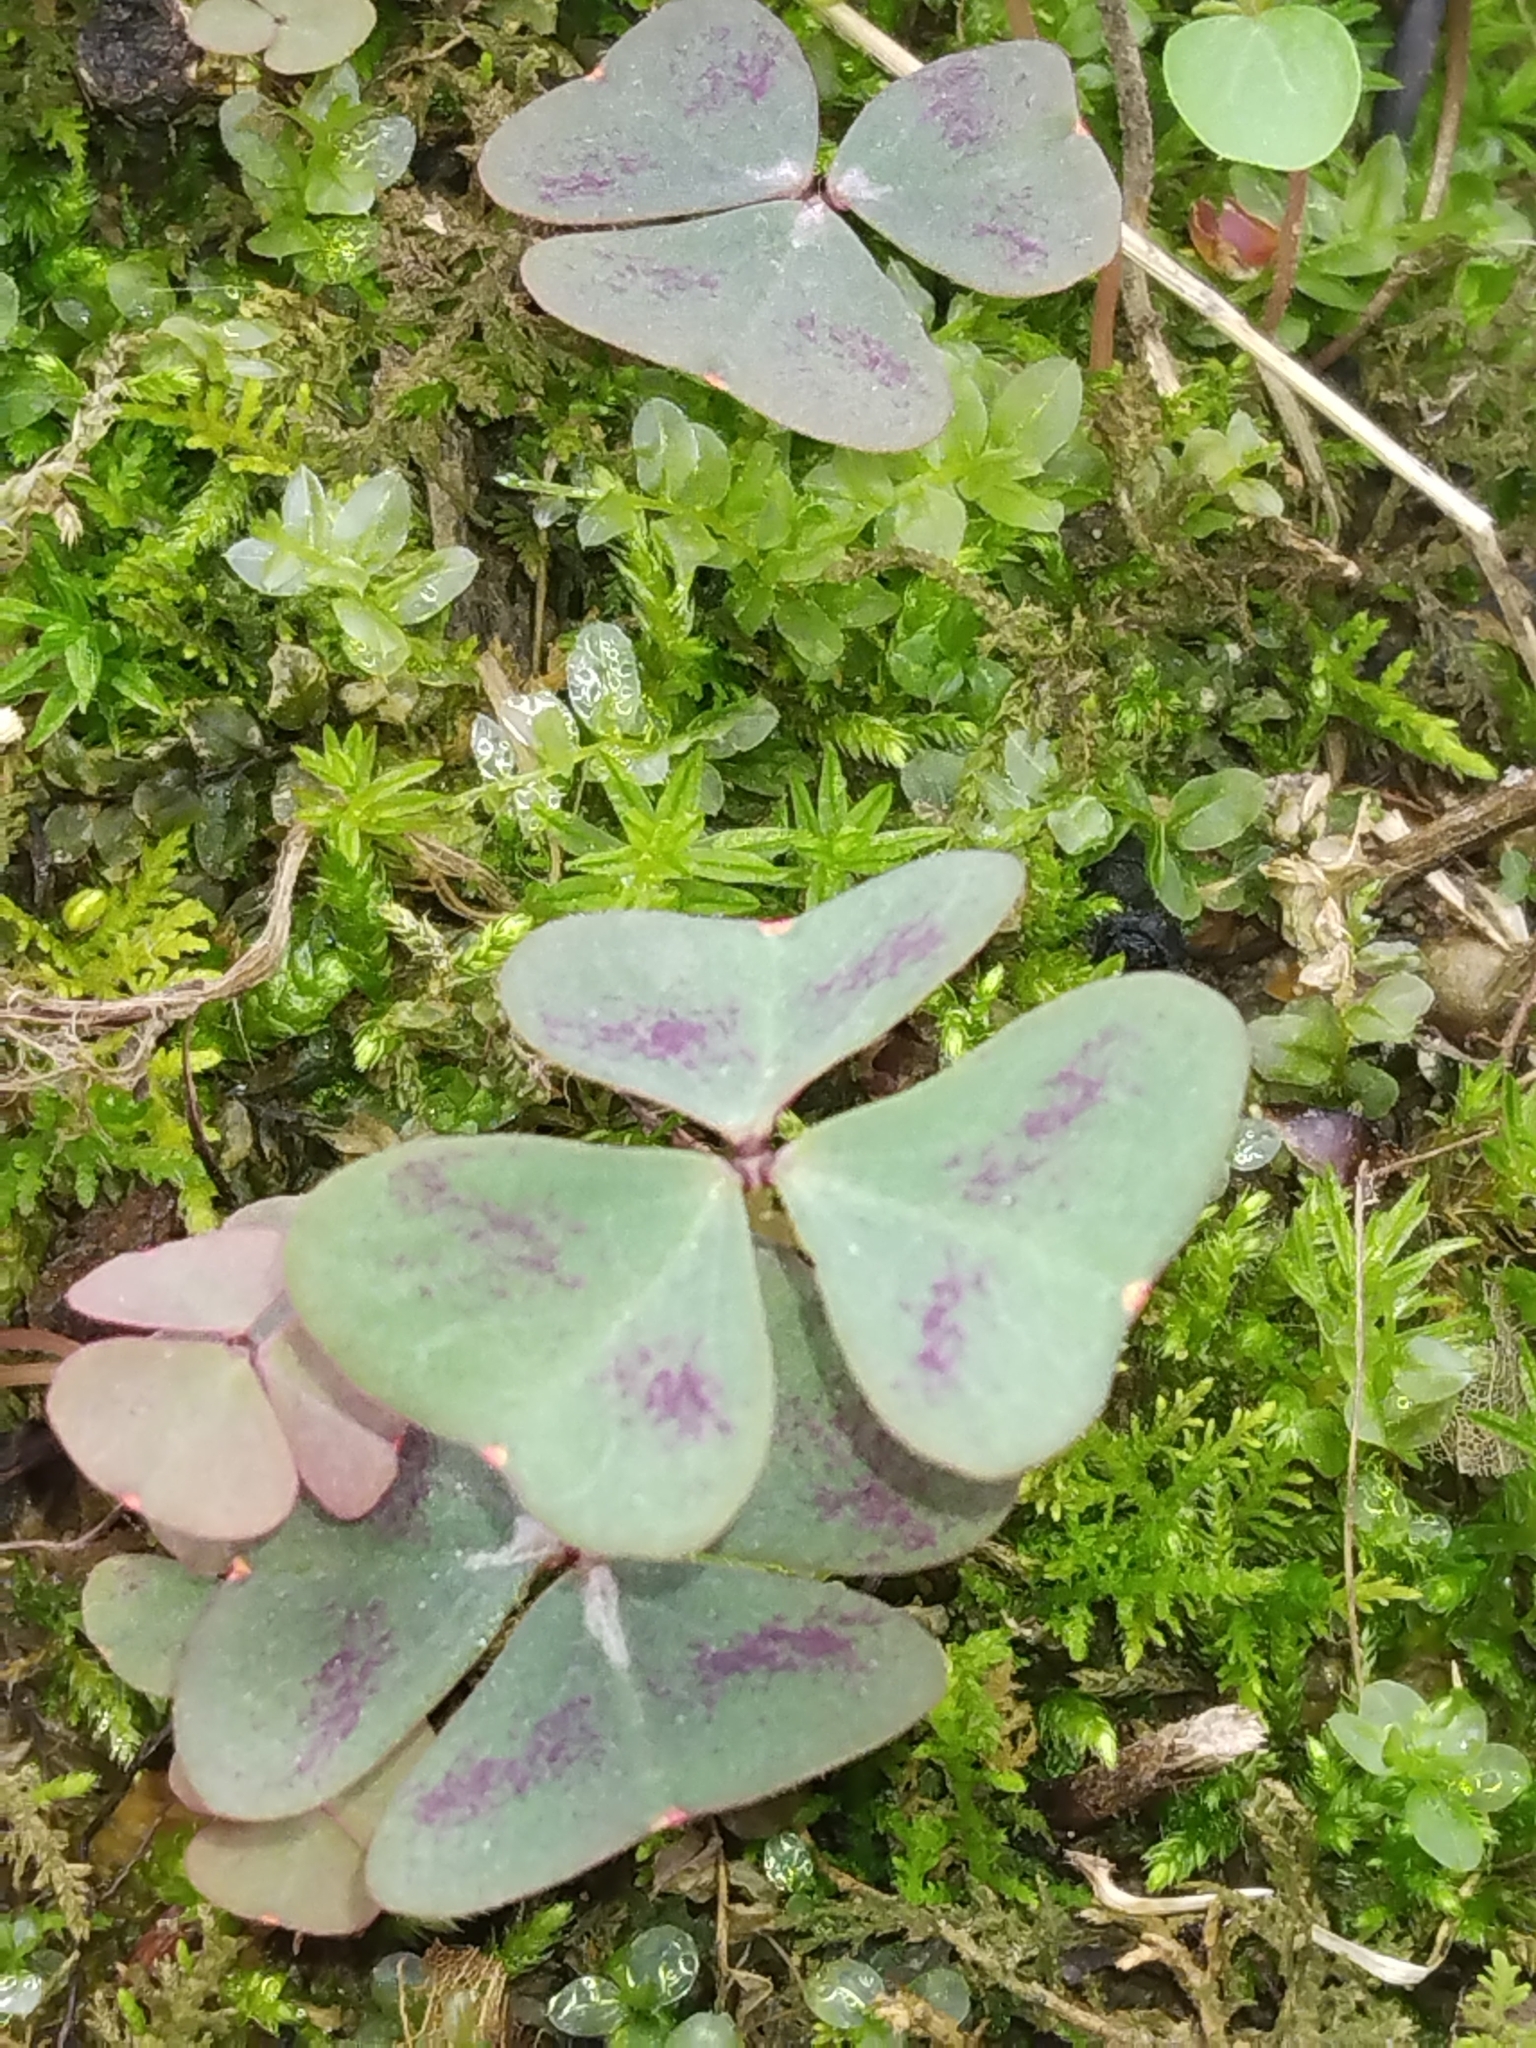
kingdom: Plantae
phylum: Tracheophyta
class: Magnoliopsida
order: Oxalidales
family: Oxalidaceae
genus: Oxalis
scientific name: Oxalis violacea
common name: Violet wood-sorrel
